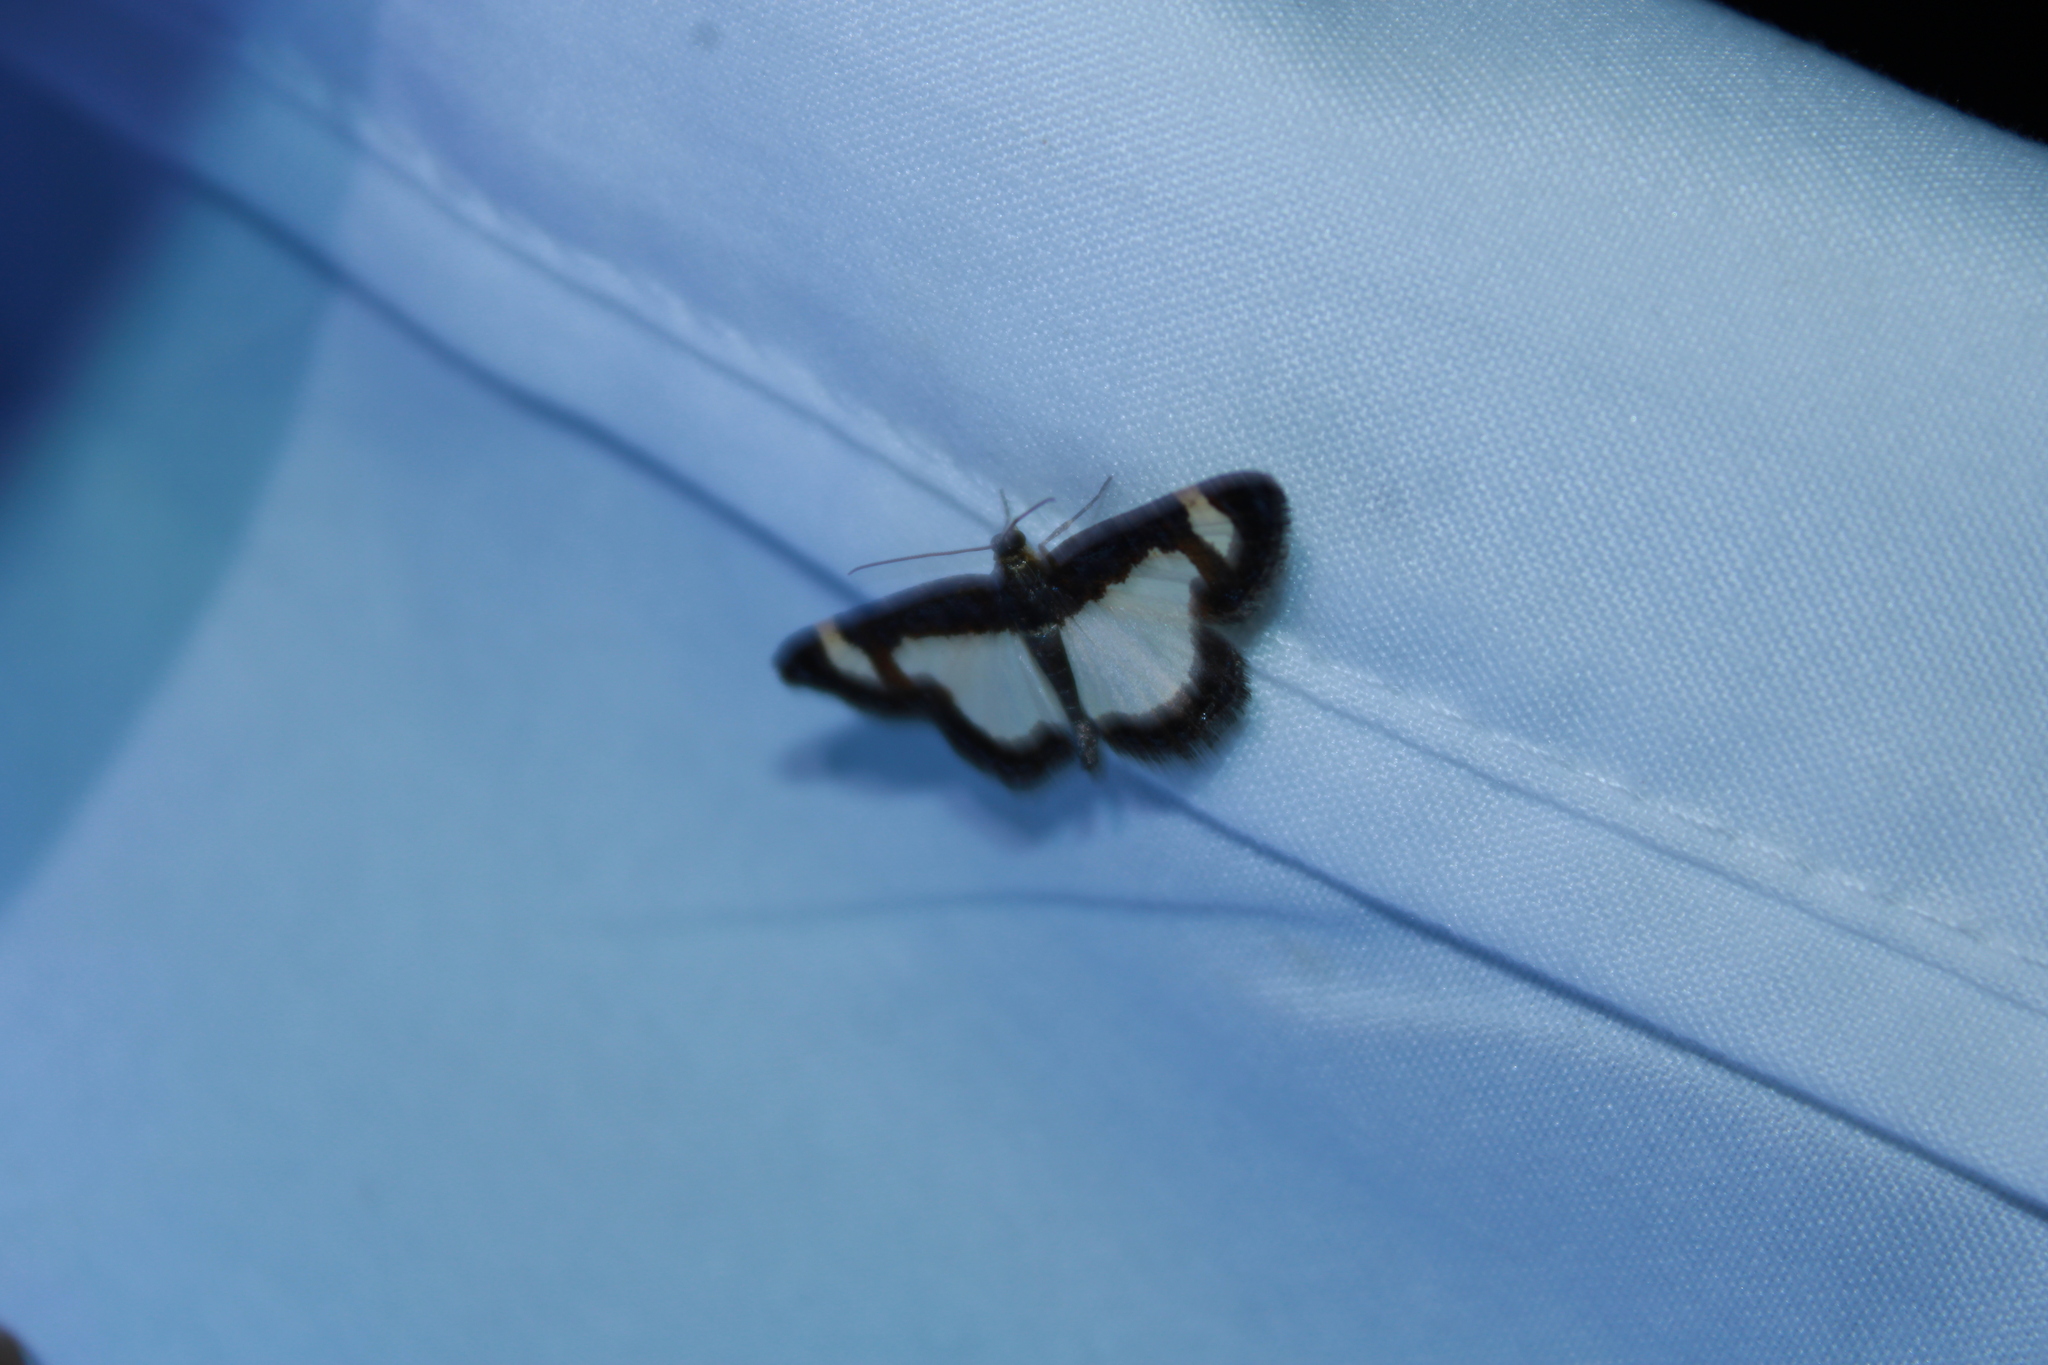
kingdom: Animalia
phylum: Arthropoda
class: Insecta
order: Lepidoptera
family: Geometridae
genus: Heliomata
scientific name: Heliomata cycladata
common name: Common spring moth
